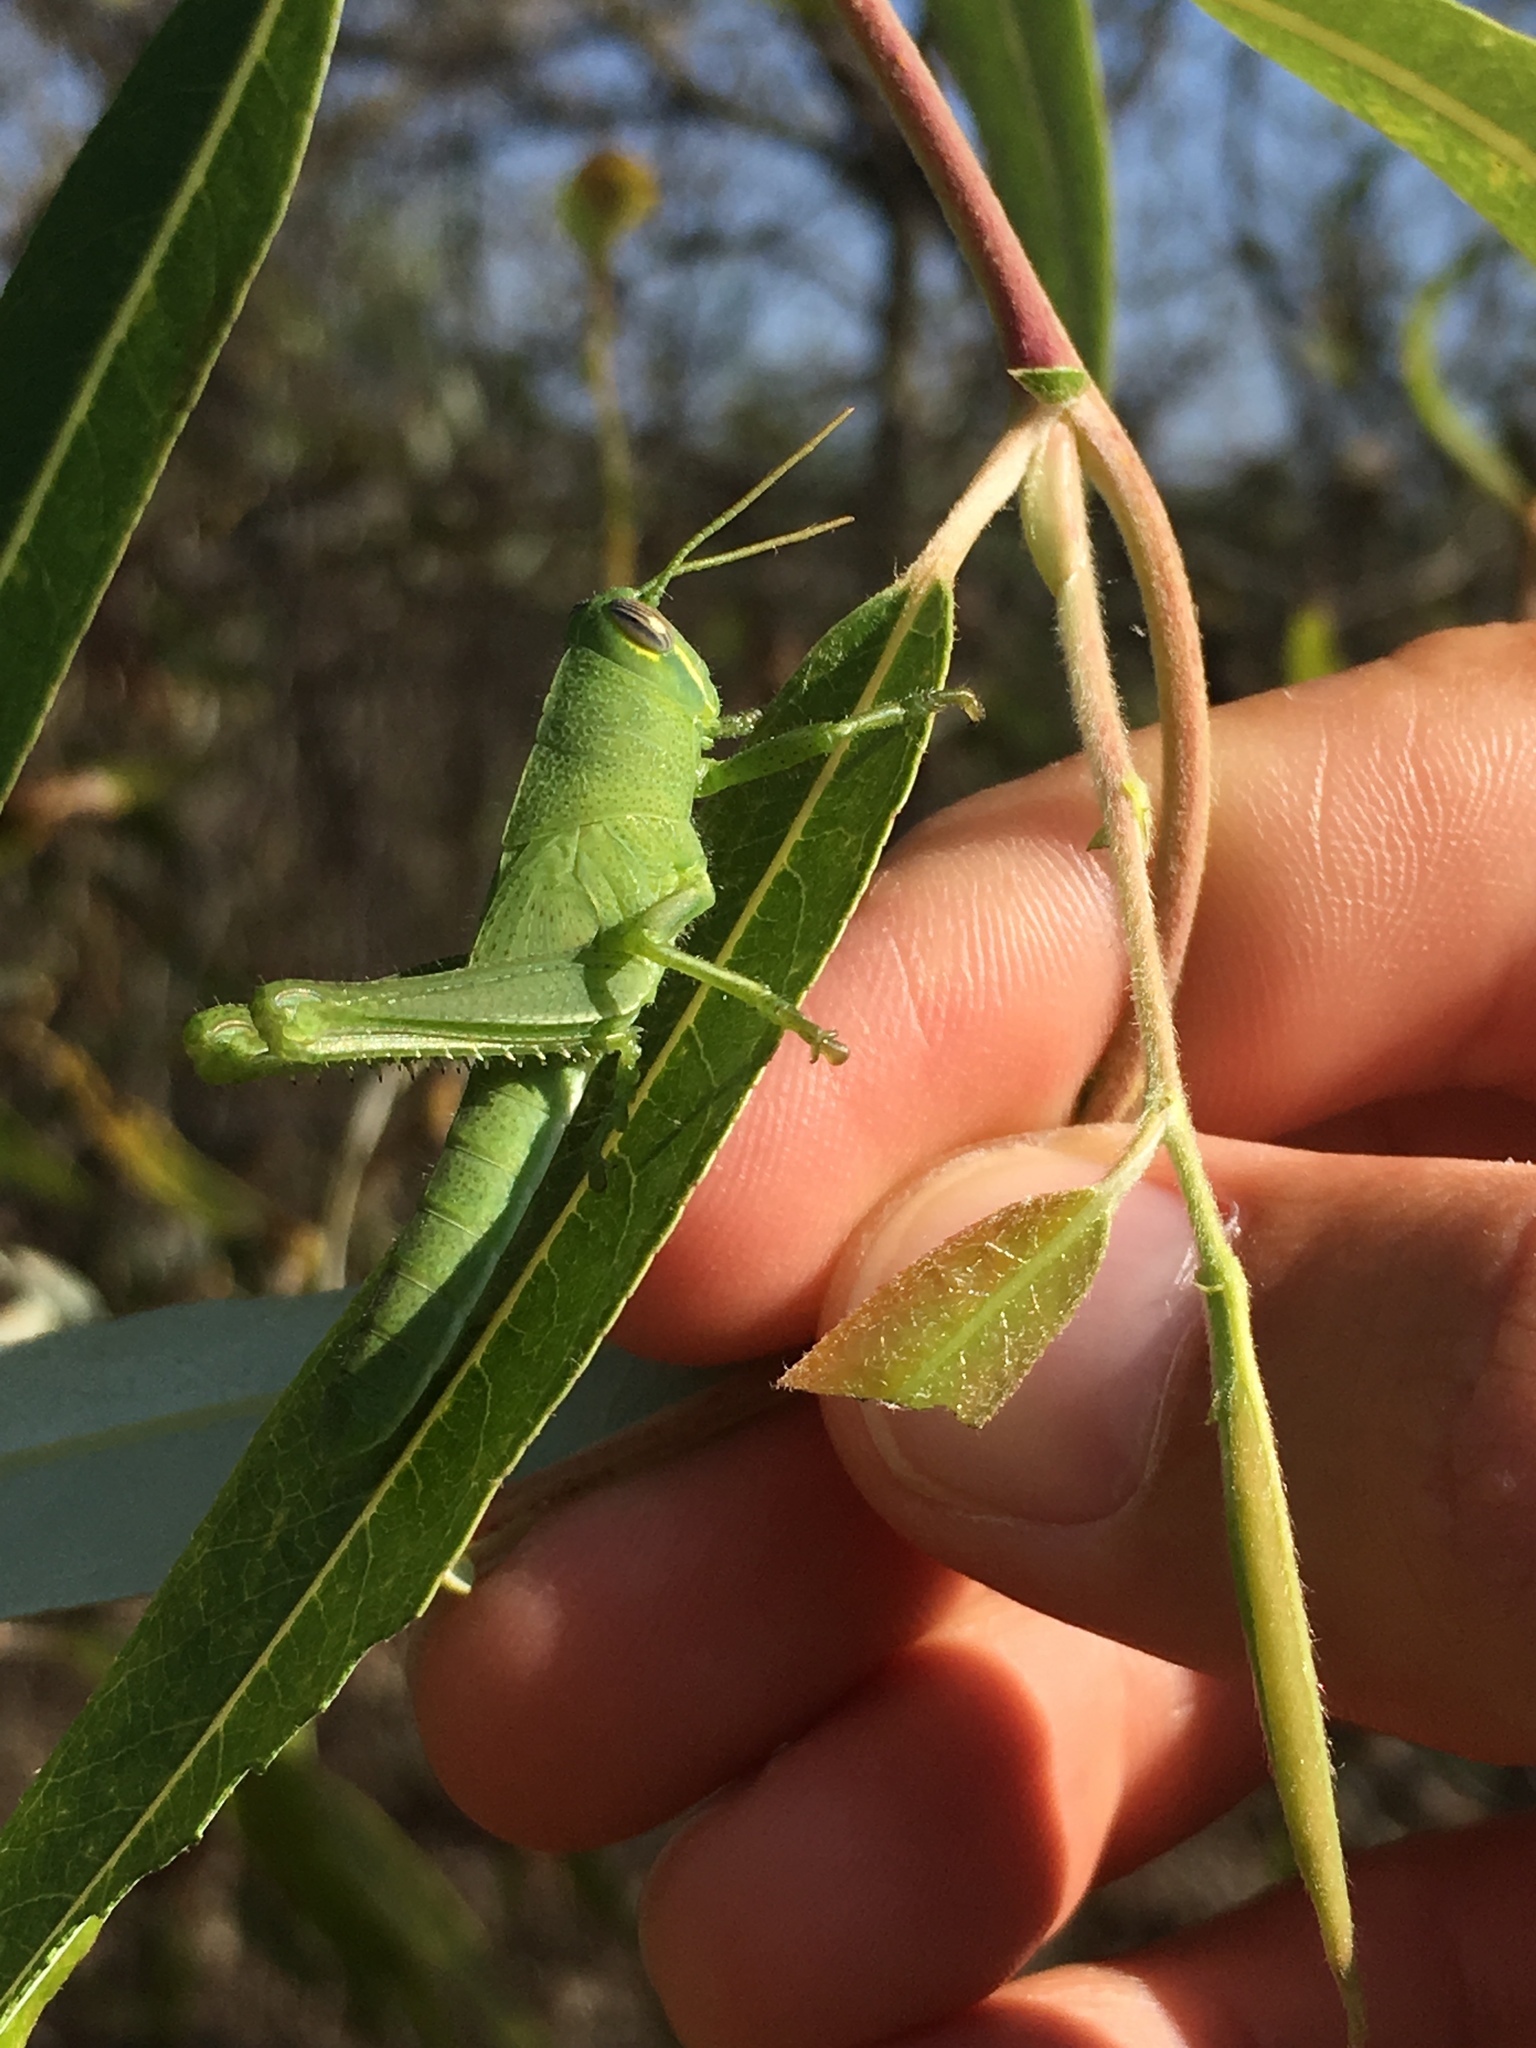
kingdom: Animalia
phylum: Arthropoda
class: Insecta
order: Orthoptera
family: Acrididae
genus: Schistocerca
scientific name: Schistocerca nitens
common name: Vagrant grasshopper
